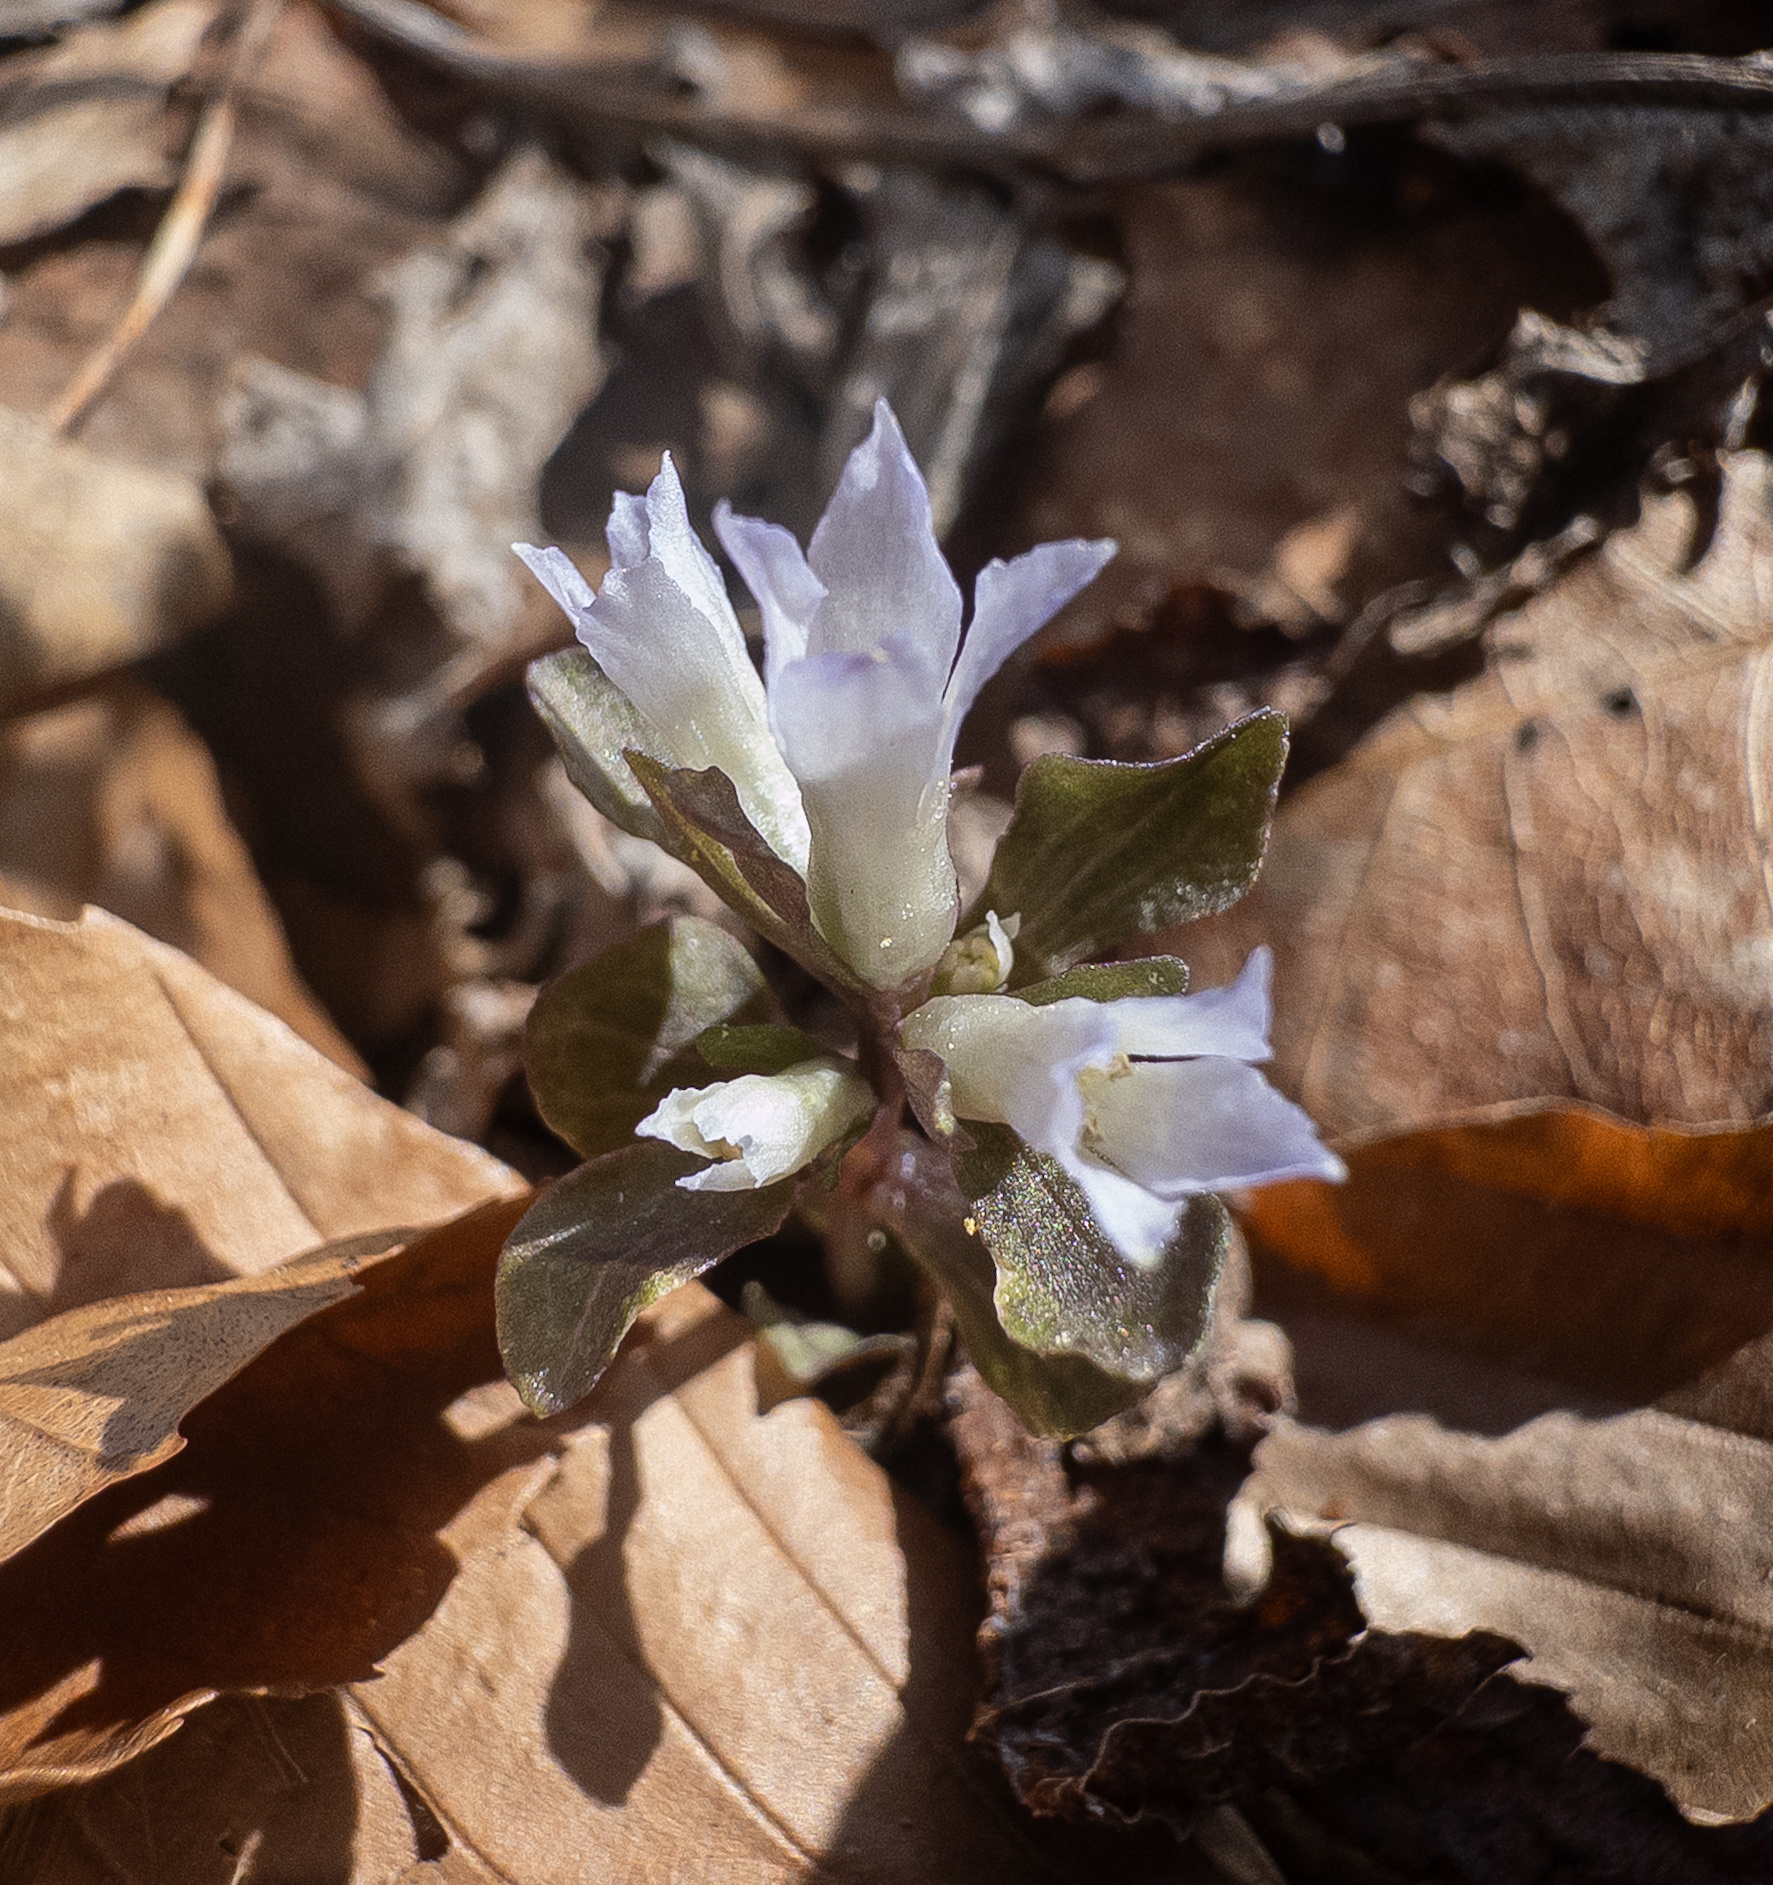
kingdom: Plantae
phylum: Tracheophyta
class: Magnoliopsida
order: Gentianales
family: Gentianaceae
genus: Obolaria
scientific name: Obolaria virginica
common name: Pennywort
